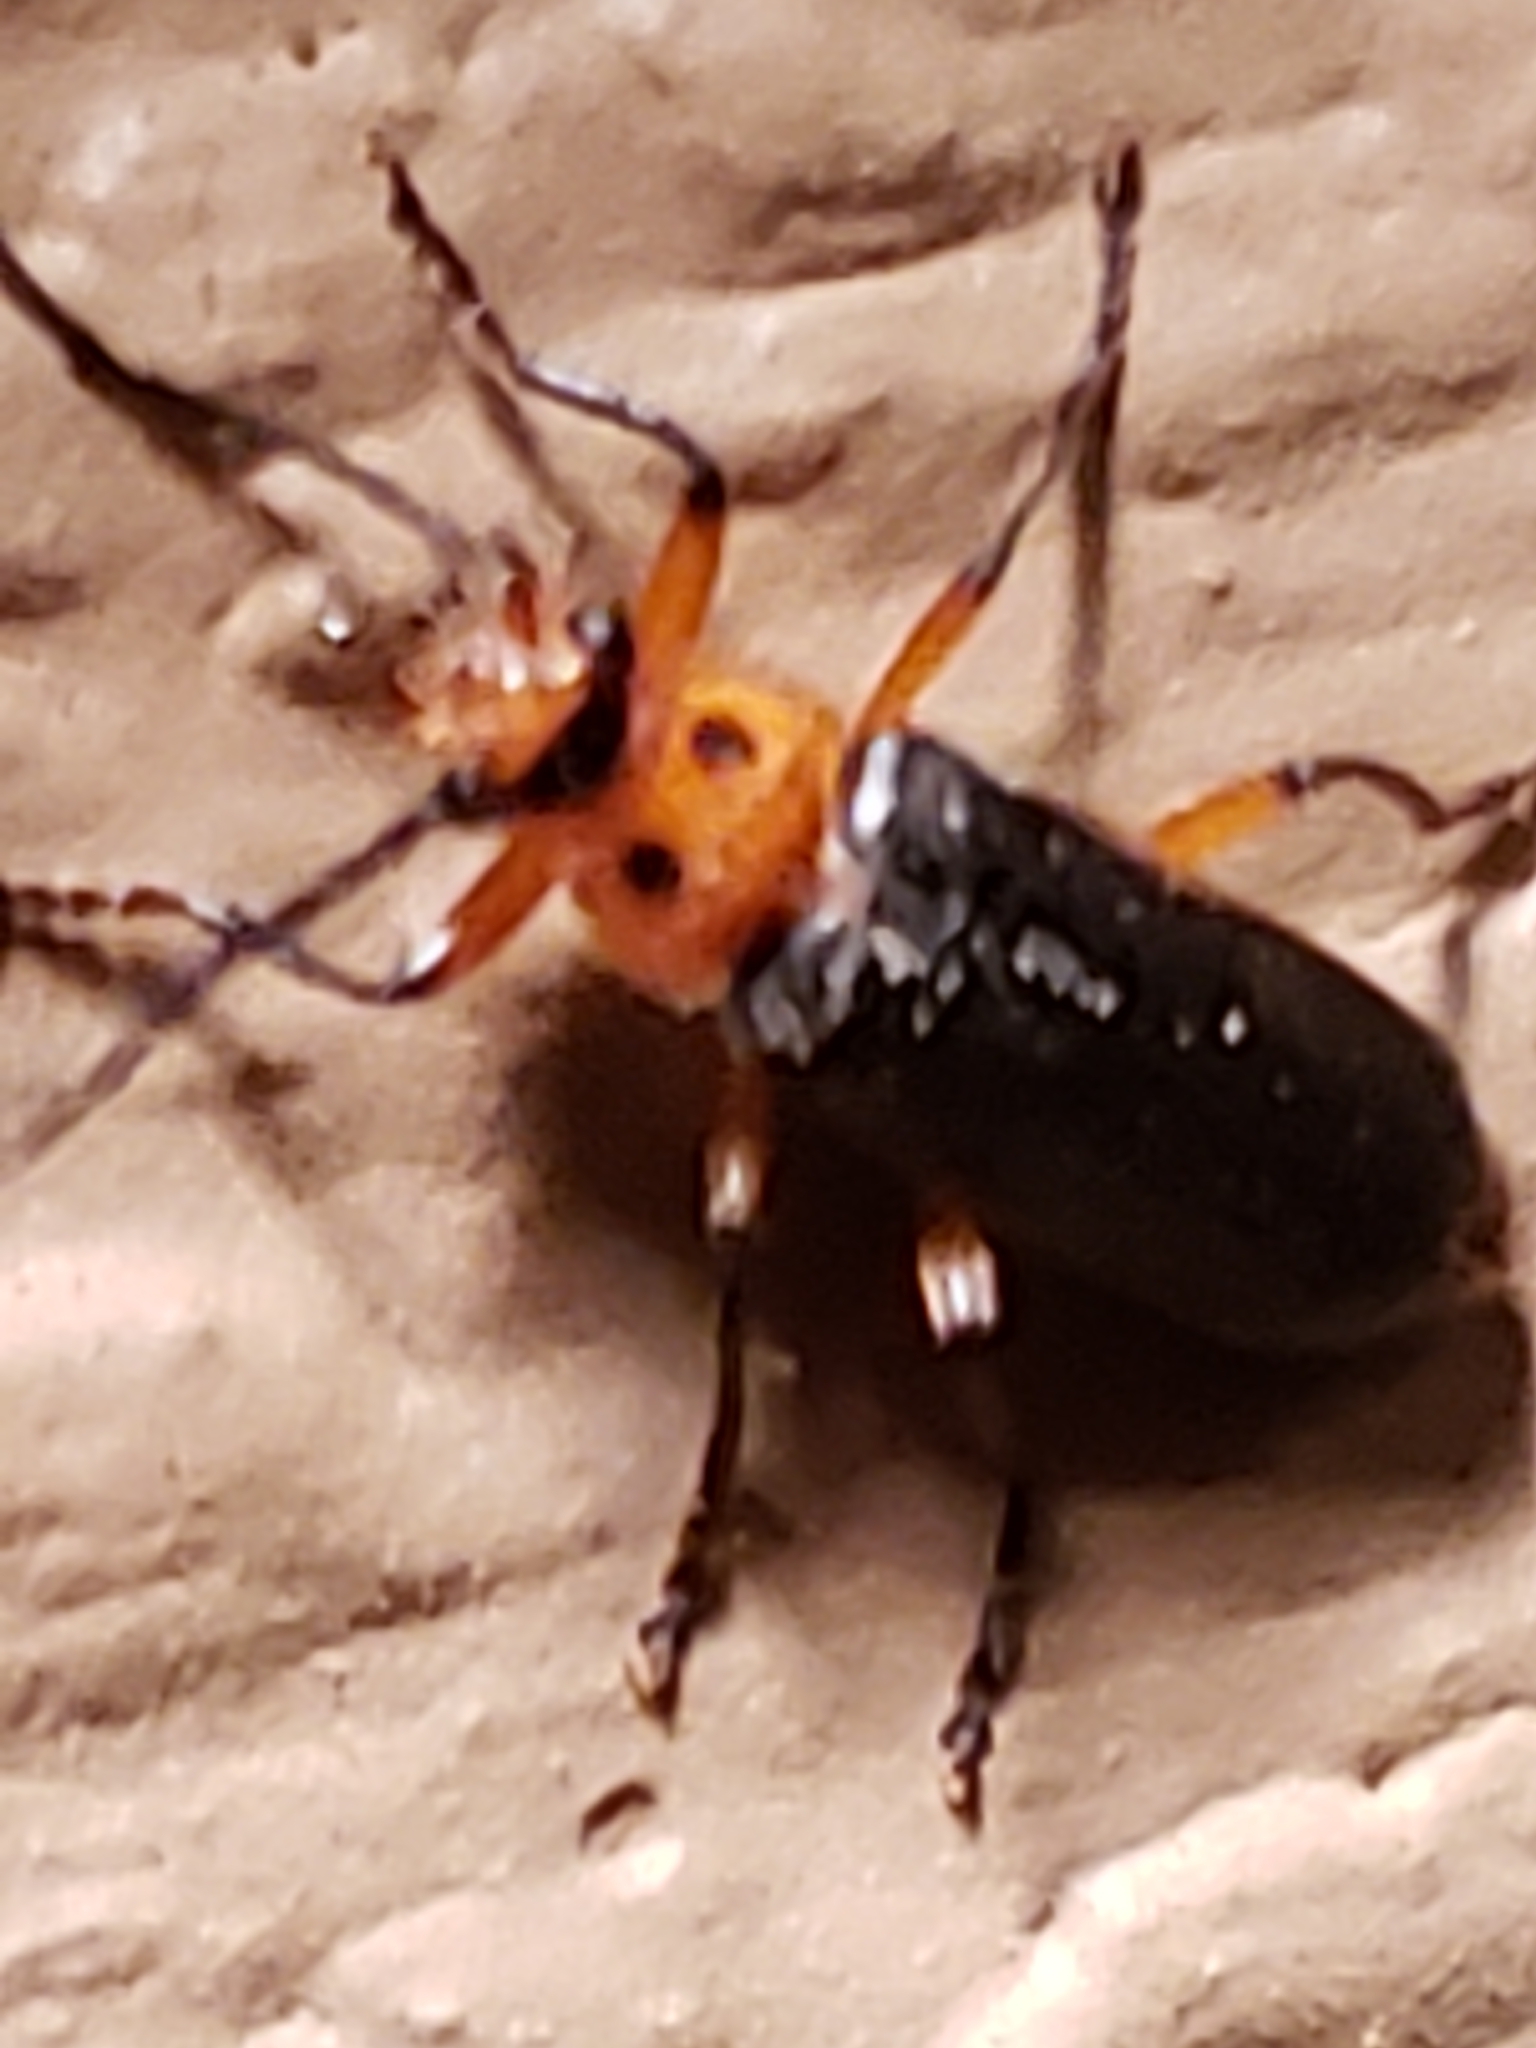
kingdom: Animalia
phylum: Arthropoda
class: Insecta
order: Coleoptera
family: Cantharidae
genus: Atalantycha
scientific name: Atalantycha bilineata
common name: Two-lined leatherwing
